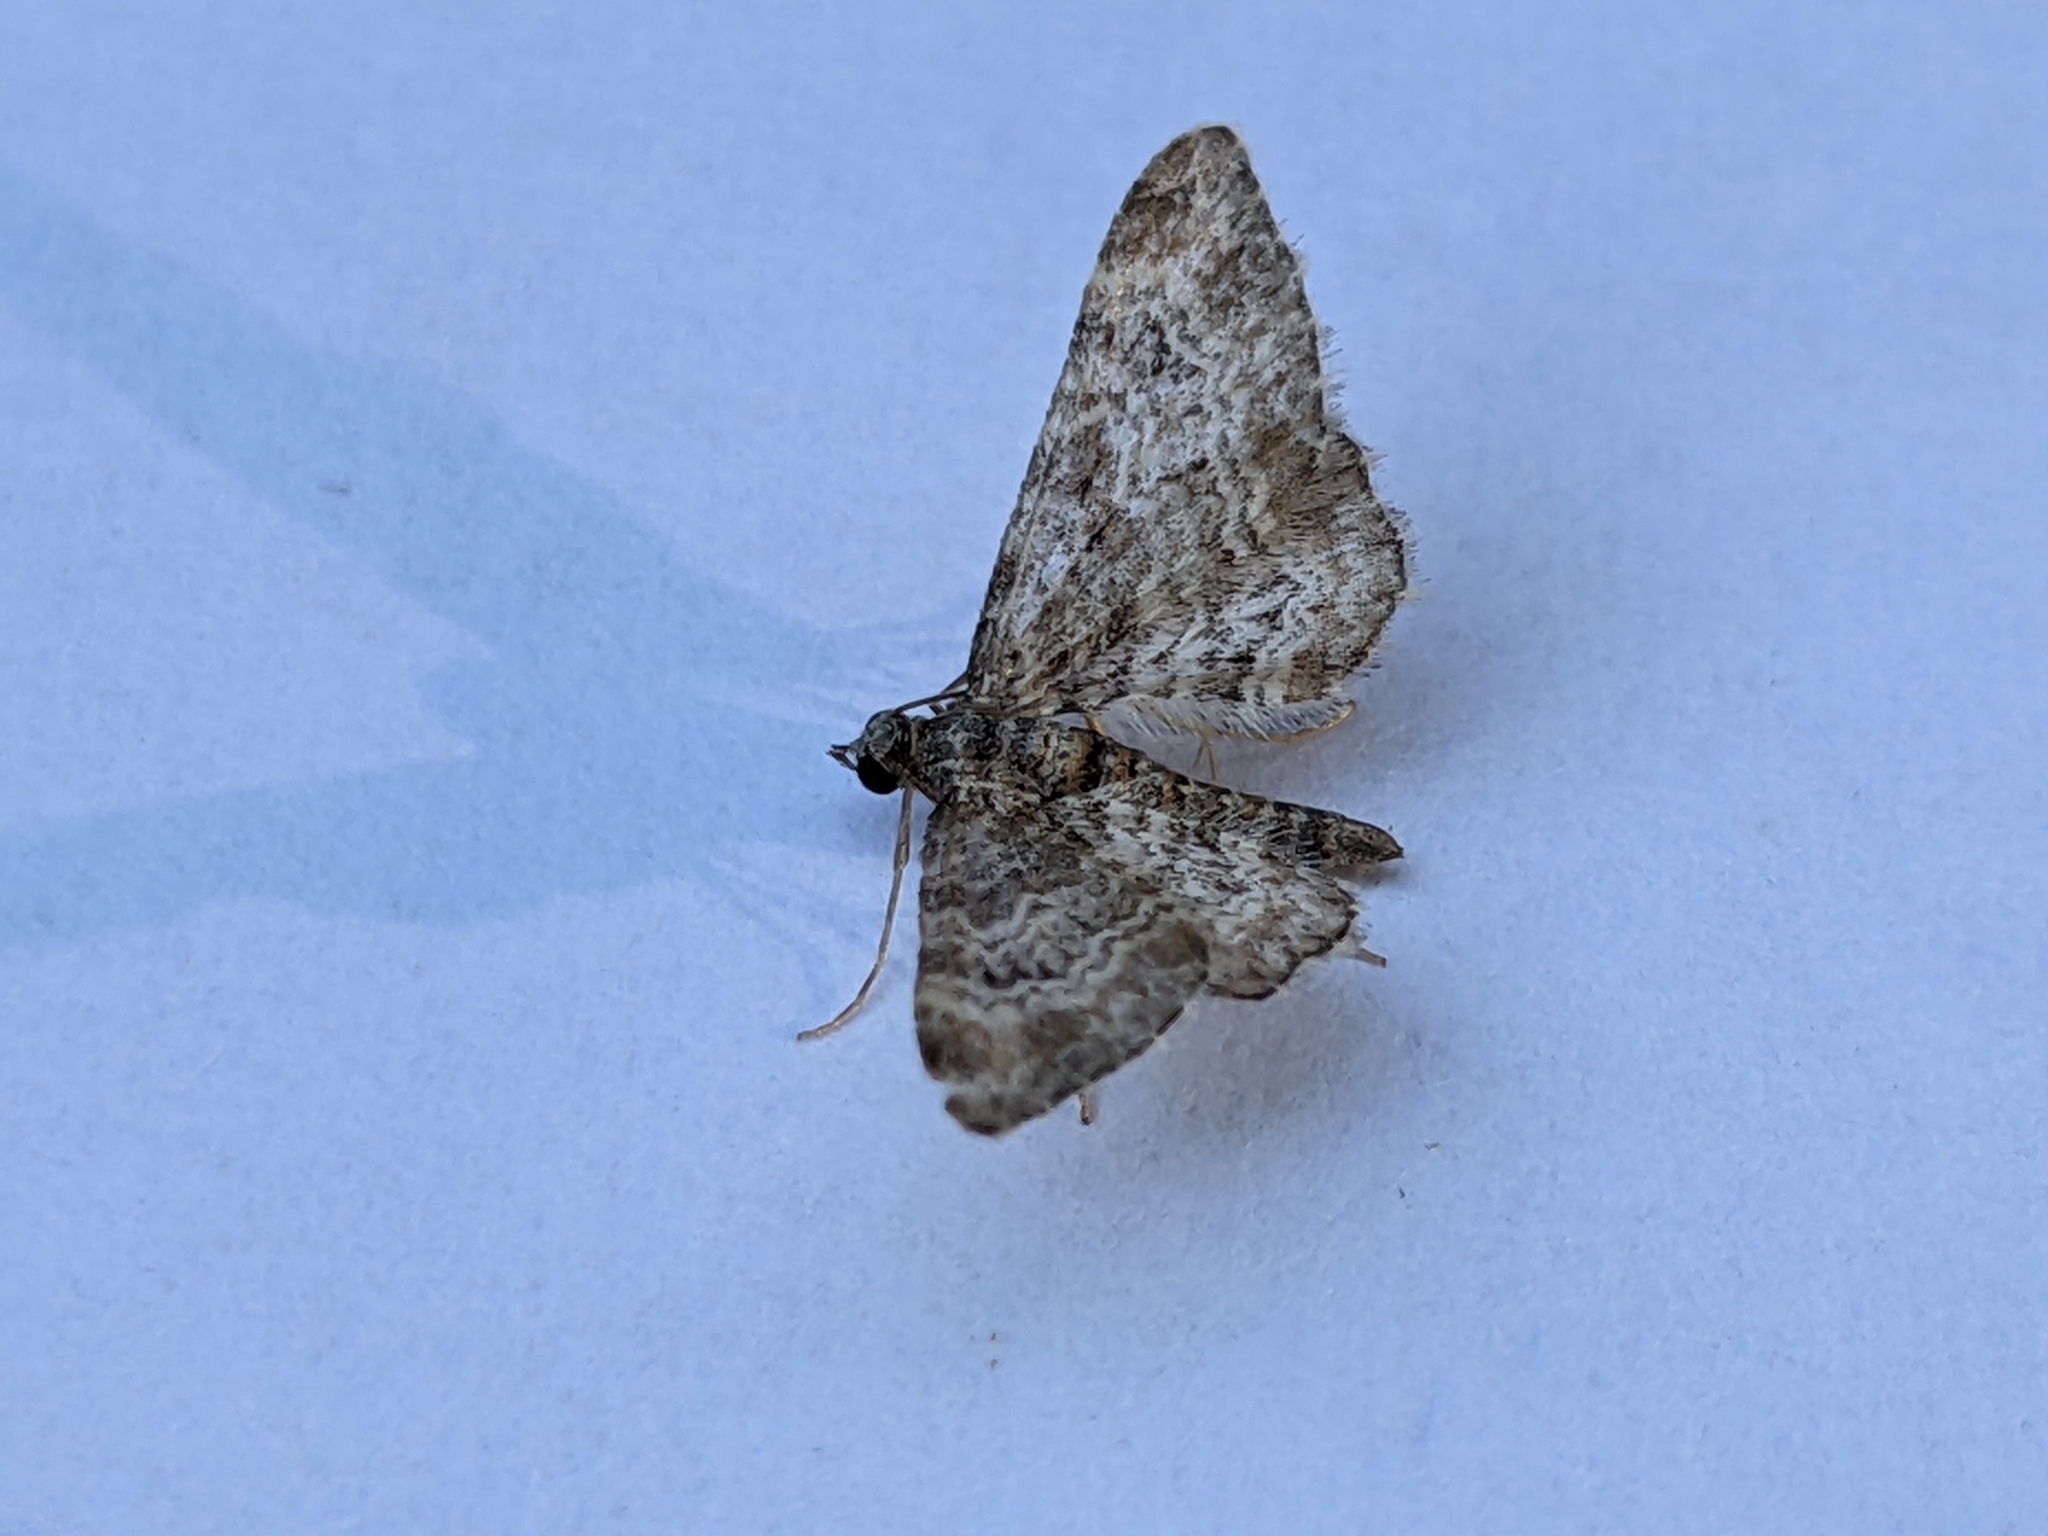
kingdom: Animalia
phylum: Arthropoda
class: Insecta
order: Lepidoptera
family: Geometridae
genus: Gymnoscelis
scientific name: Gymnoscelis rufifasciata
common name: Double-striped pug
